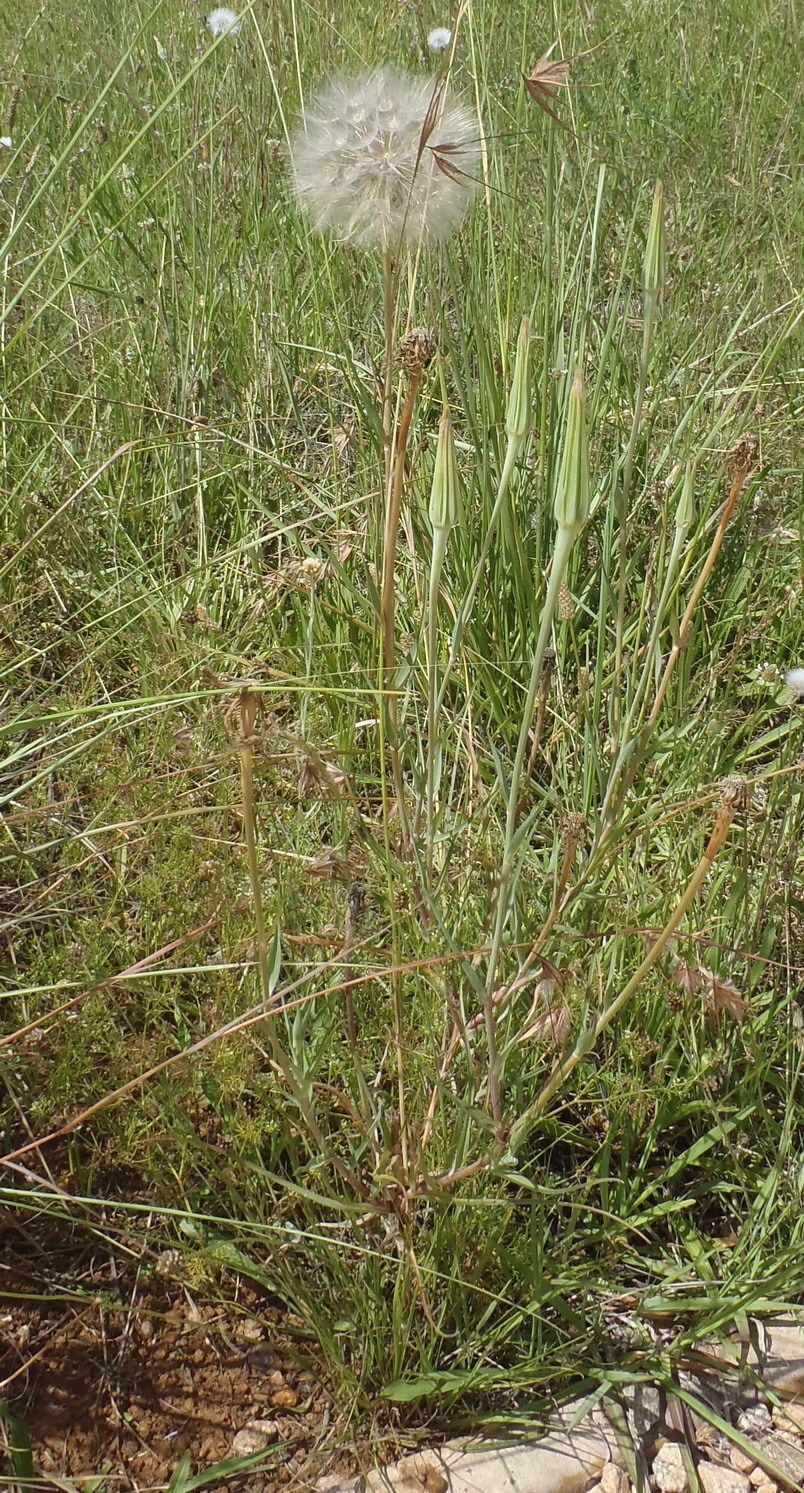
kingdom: Plantae
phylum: Tracheophyta
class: Magnoliopsida
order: Asterales
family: Asteraceae
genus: Tragopogon
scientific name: Tragopogon dubius
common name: Yellow salsify
